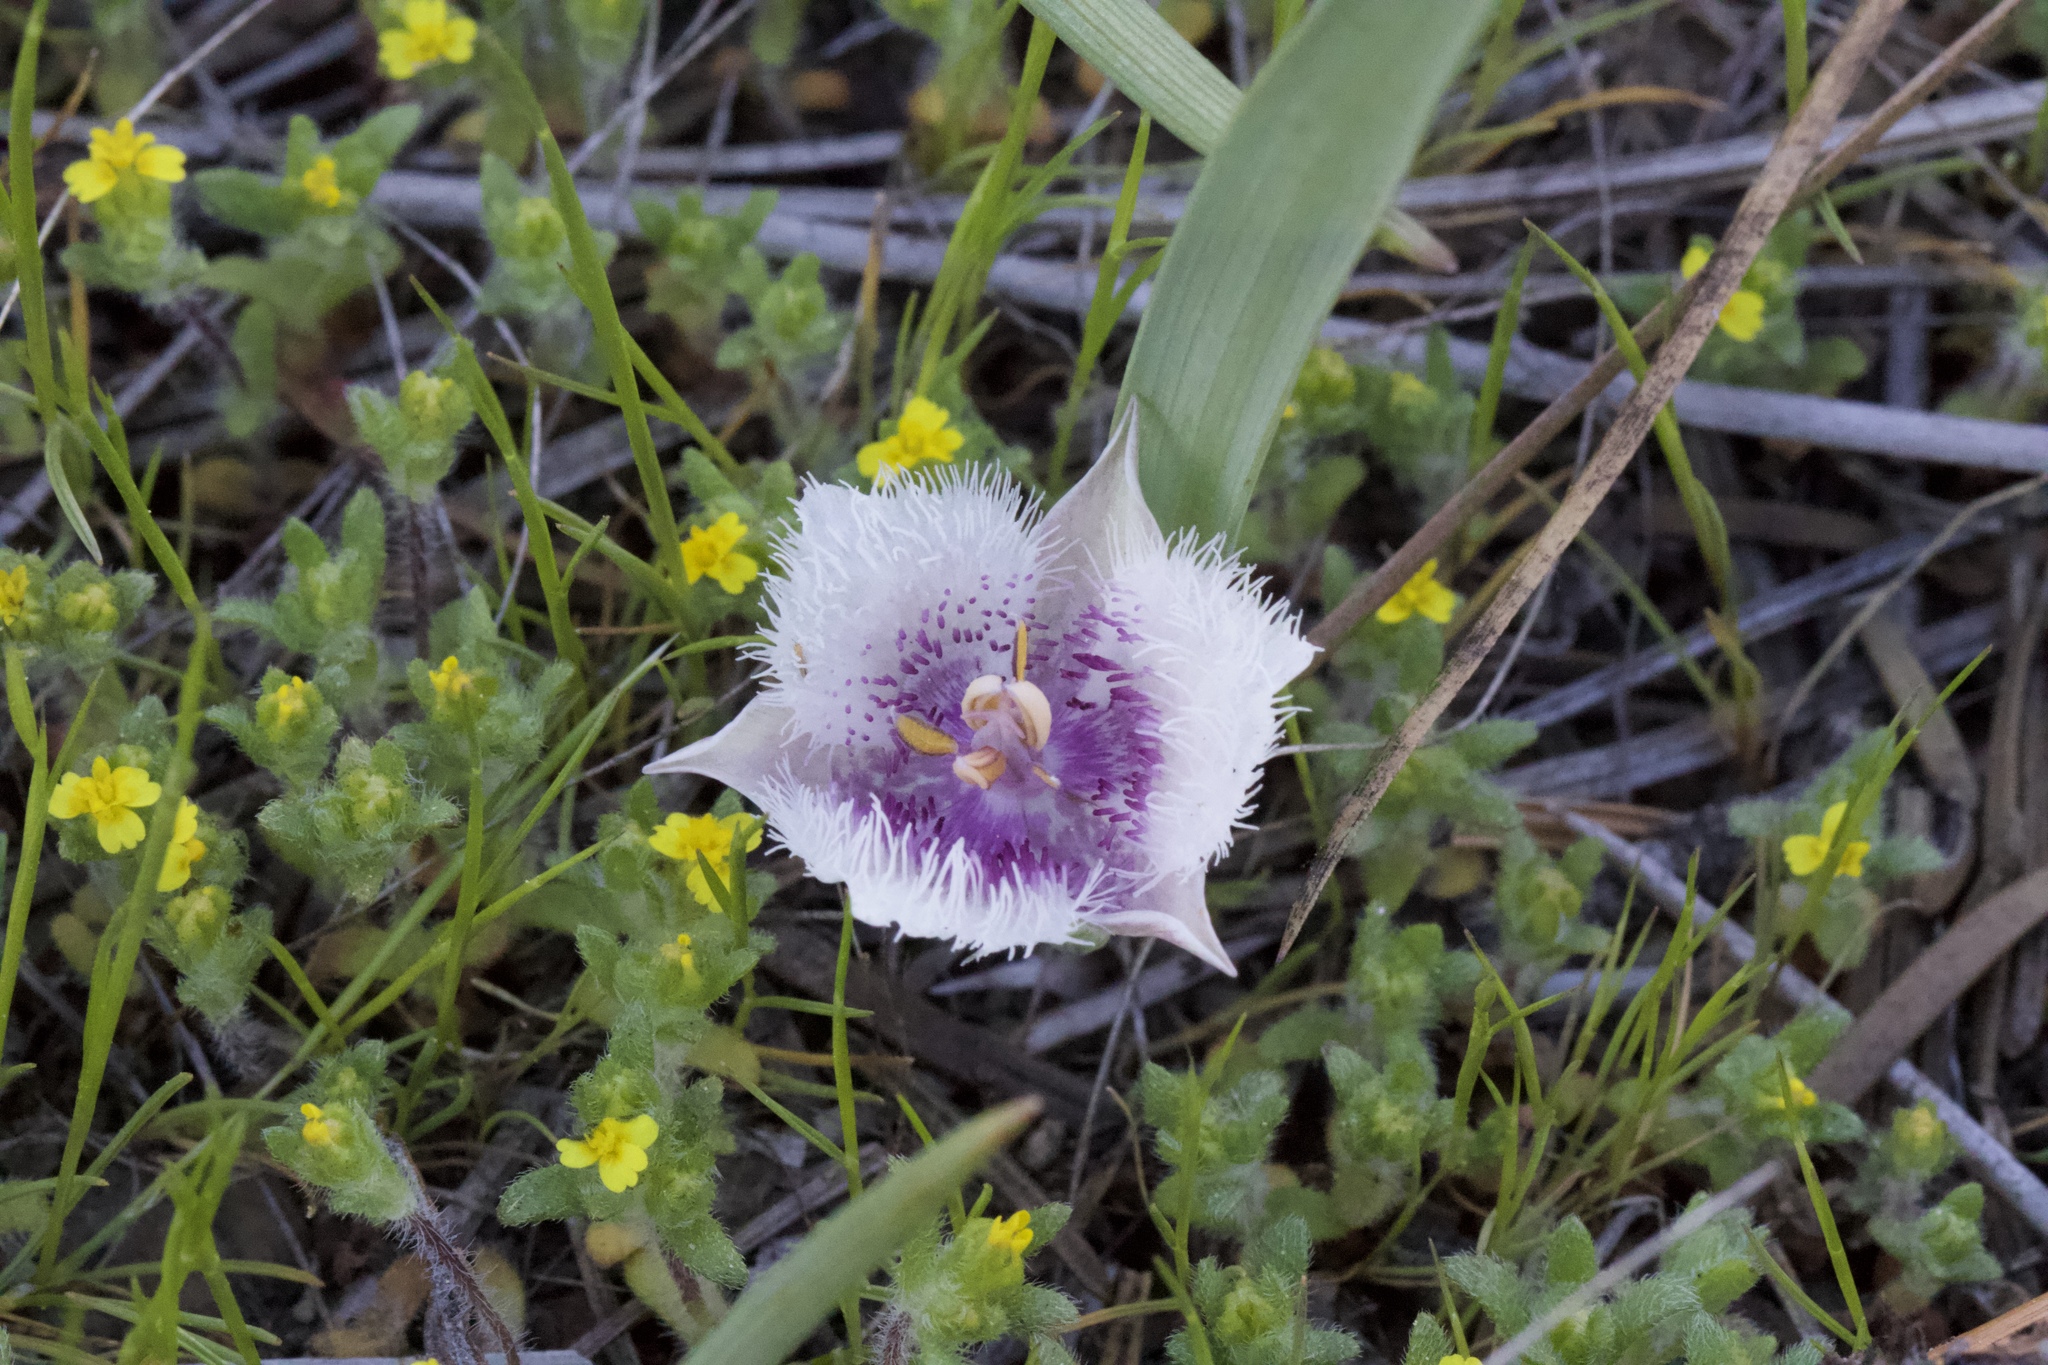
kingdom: Plantae
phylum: Tracheophyta
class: Liliopsida
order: Liliales
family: Liliaceae
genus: Calochortus
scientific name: Calochortus coeruleus
